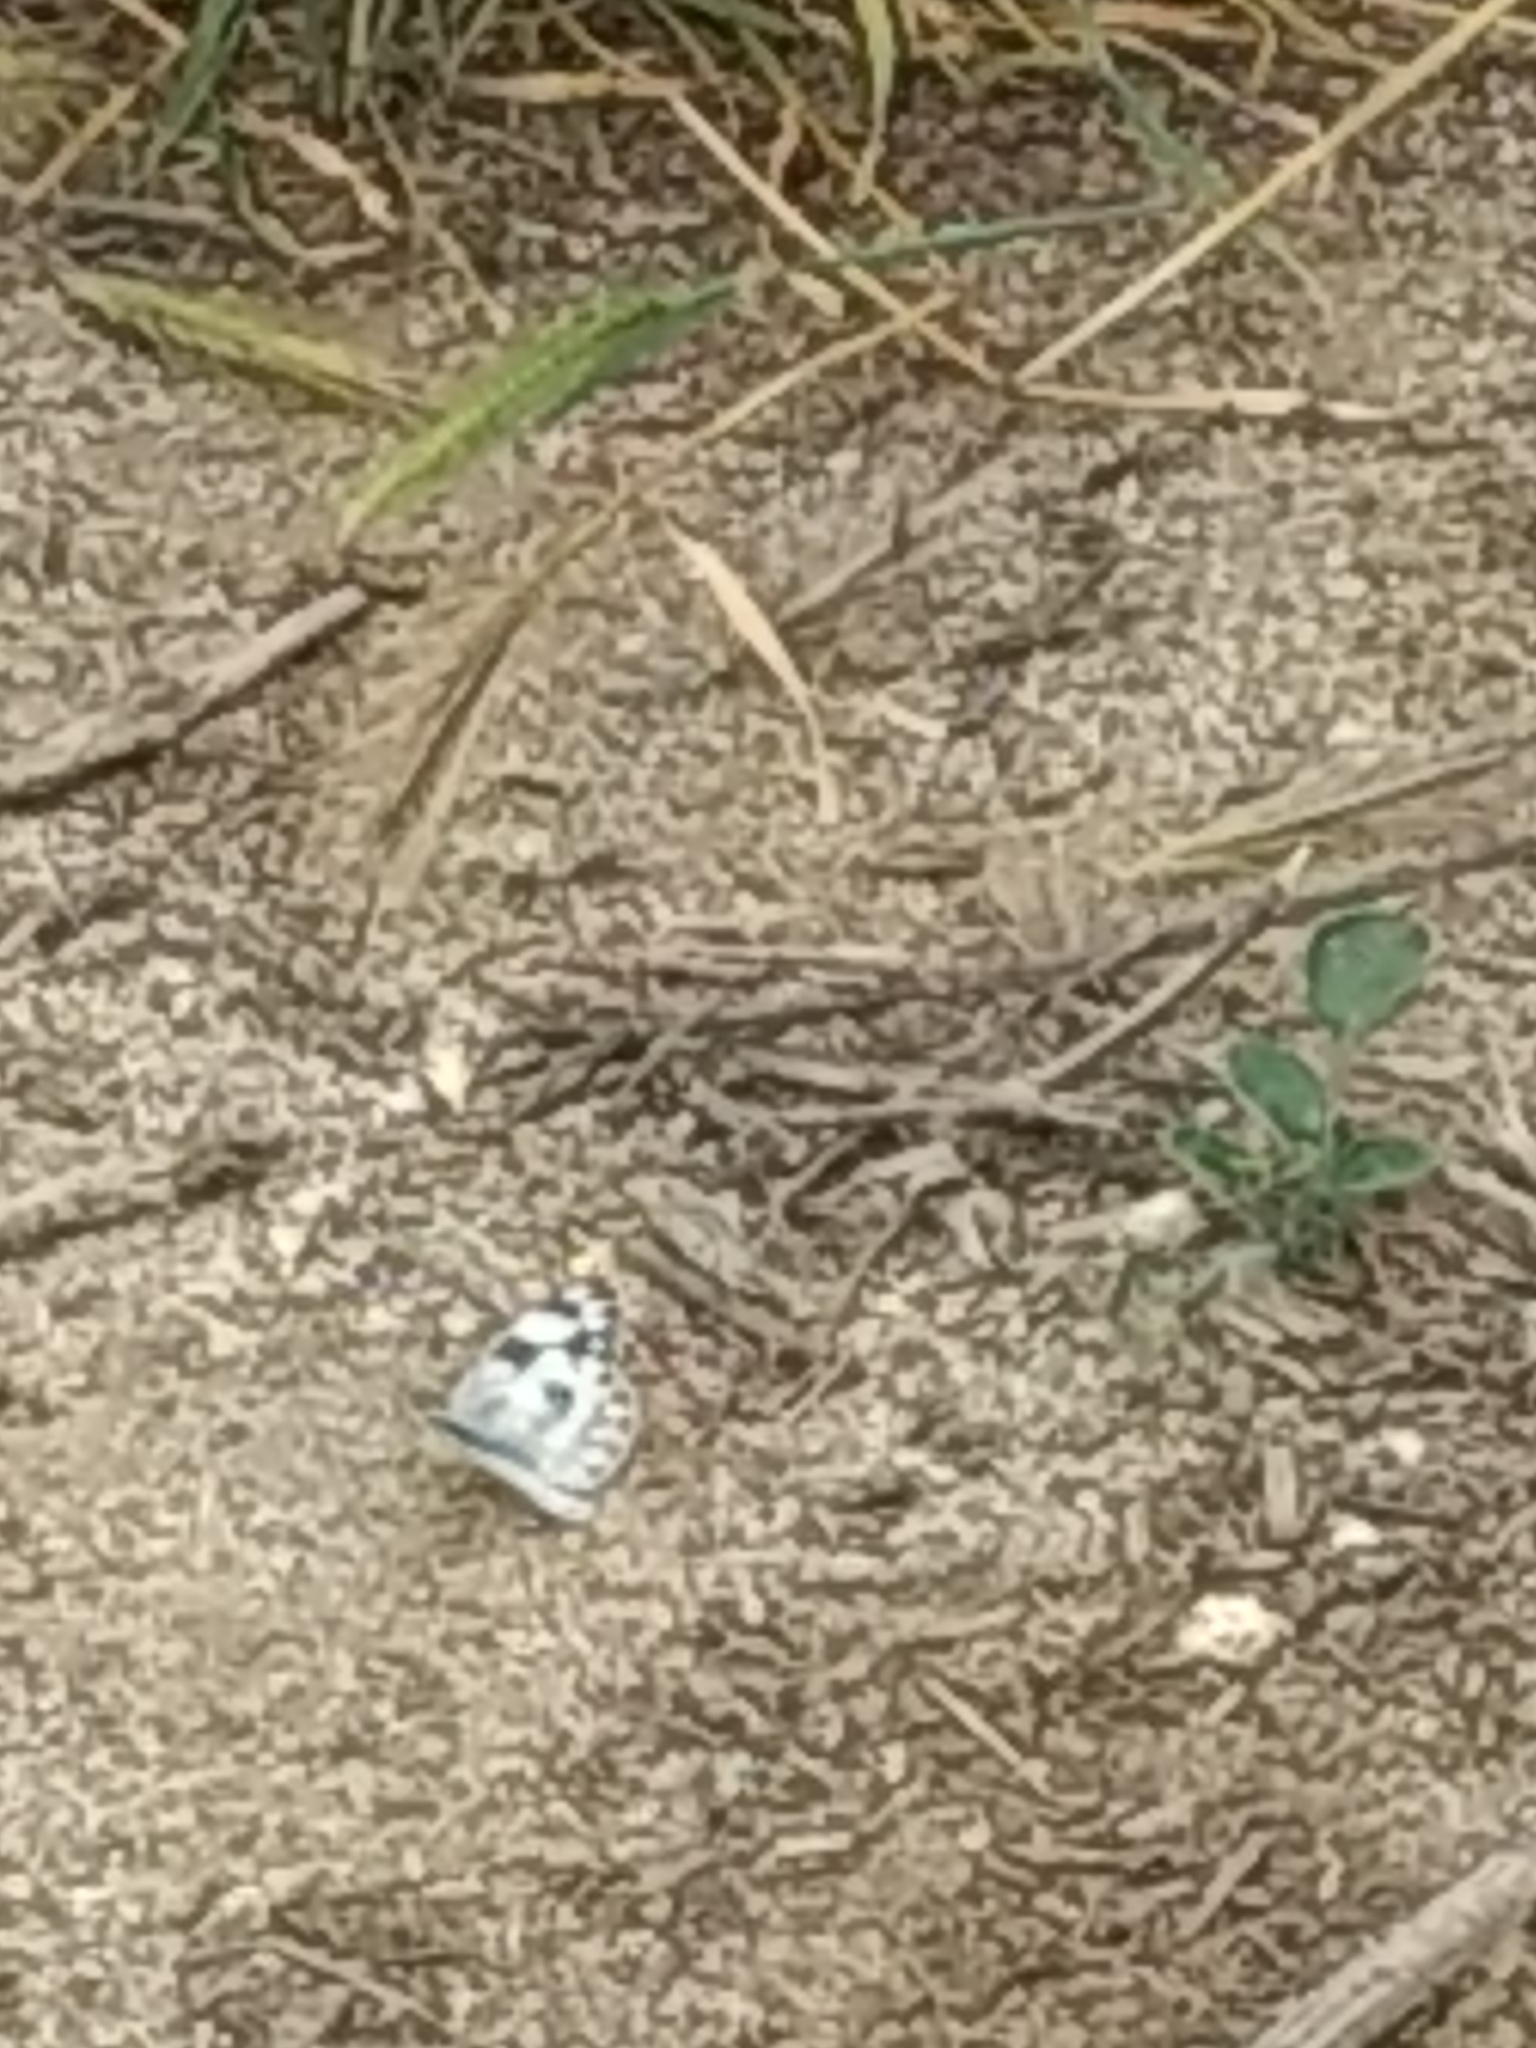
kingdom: Animalia
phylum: Arthropoda
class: Insecta
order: Lepidoptera
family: Pieridae
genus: Pontia
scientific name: Pontia protodice
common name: Checkered white
